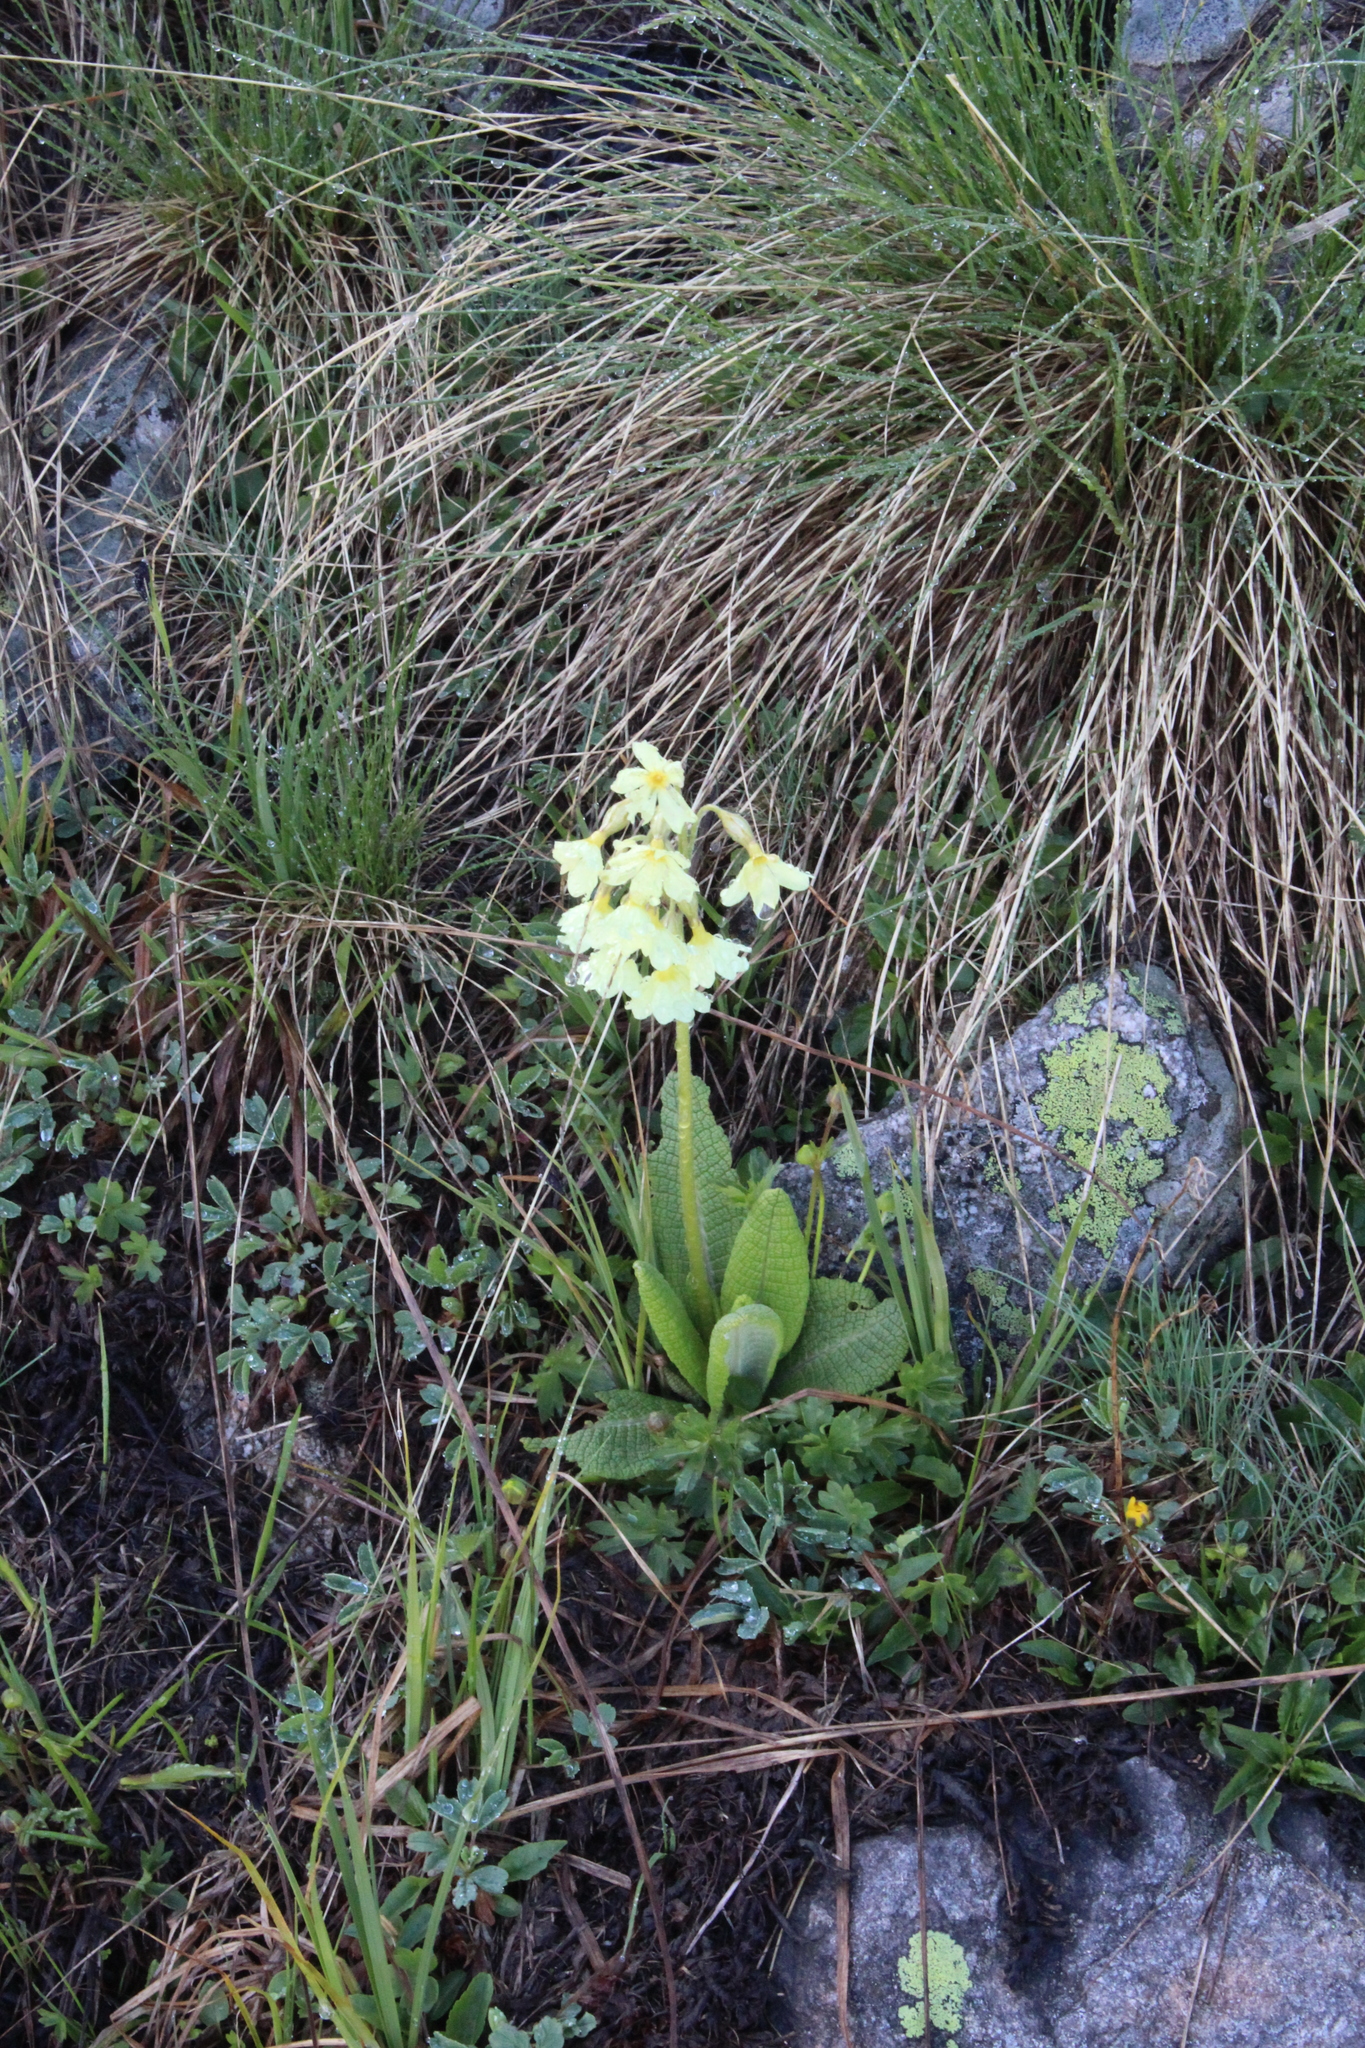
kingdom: Plantae
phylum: Tracheophyta
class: Magnoliopsida
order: Ericales
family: Primulaceae
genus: Primula
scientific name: Primula ruprechtii
